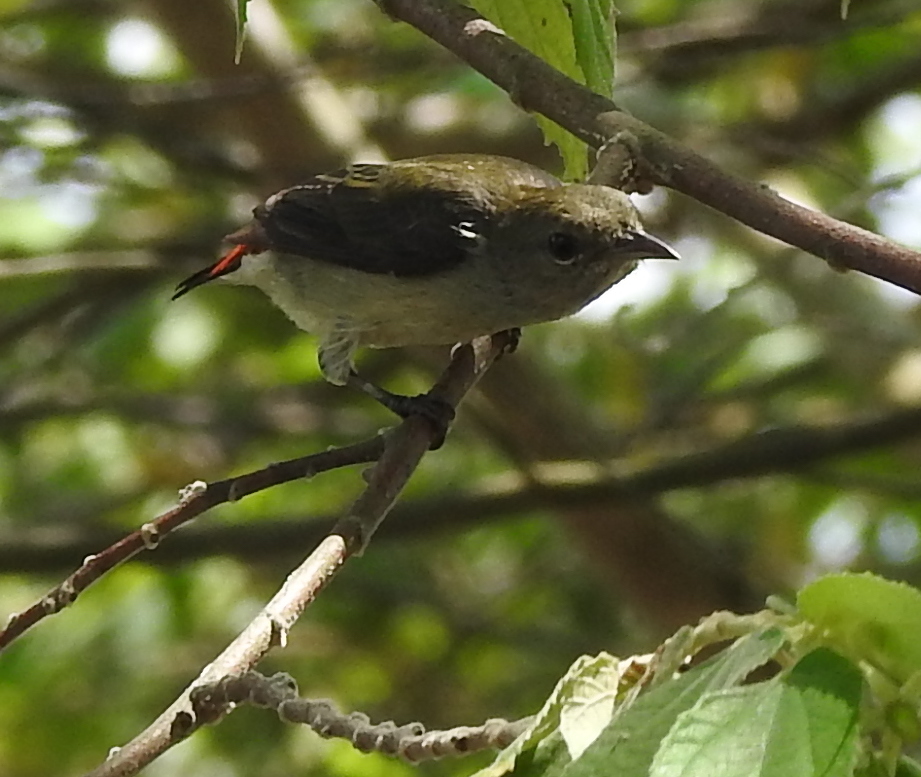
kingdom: Animalia
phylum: Chordata
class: Aves
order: Passeriformes
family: Dicaeidae
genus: Dicaeum
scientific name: Dicaeum cruentatum
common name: Scarlet-backed flowerpecker
